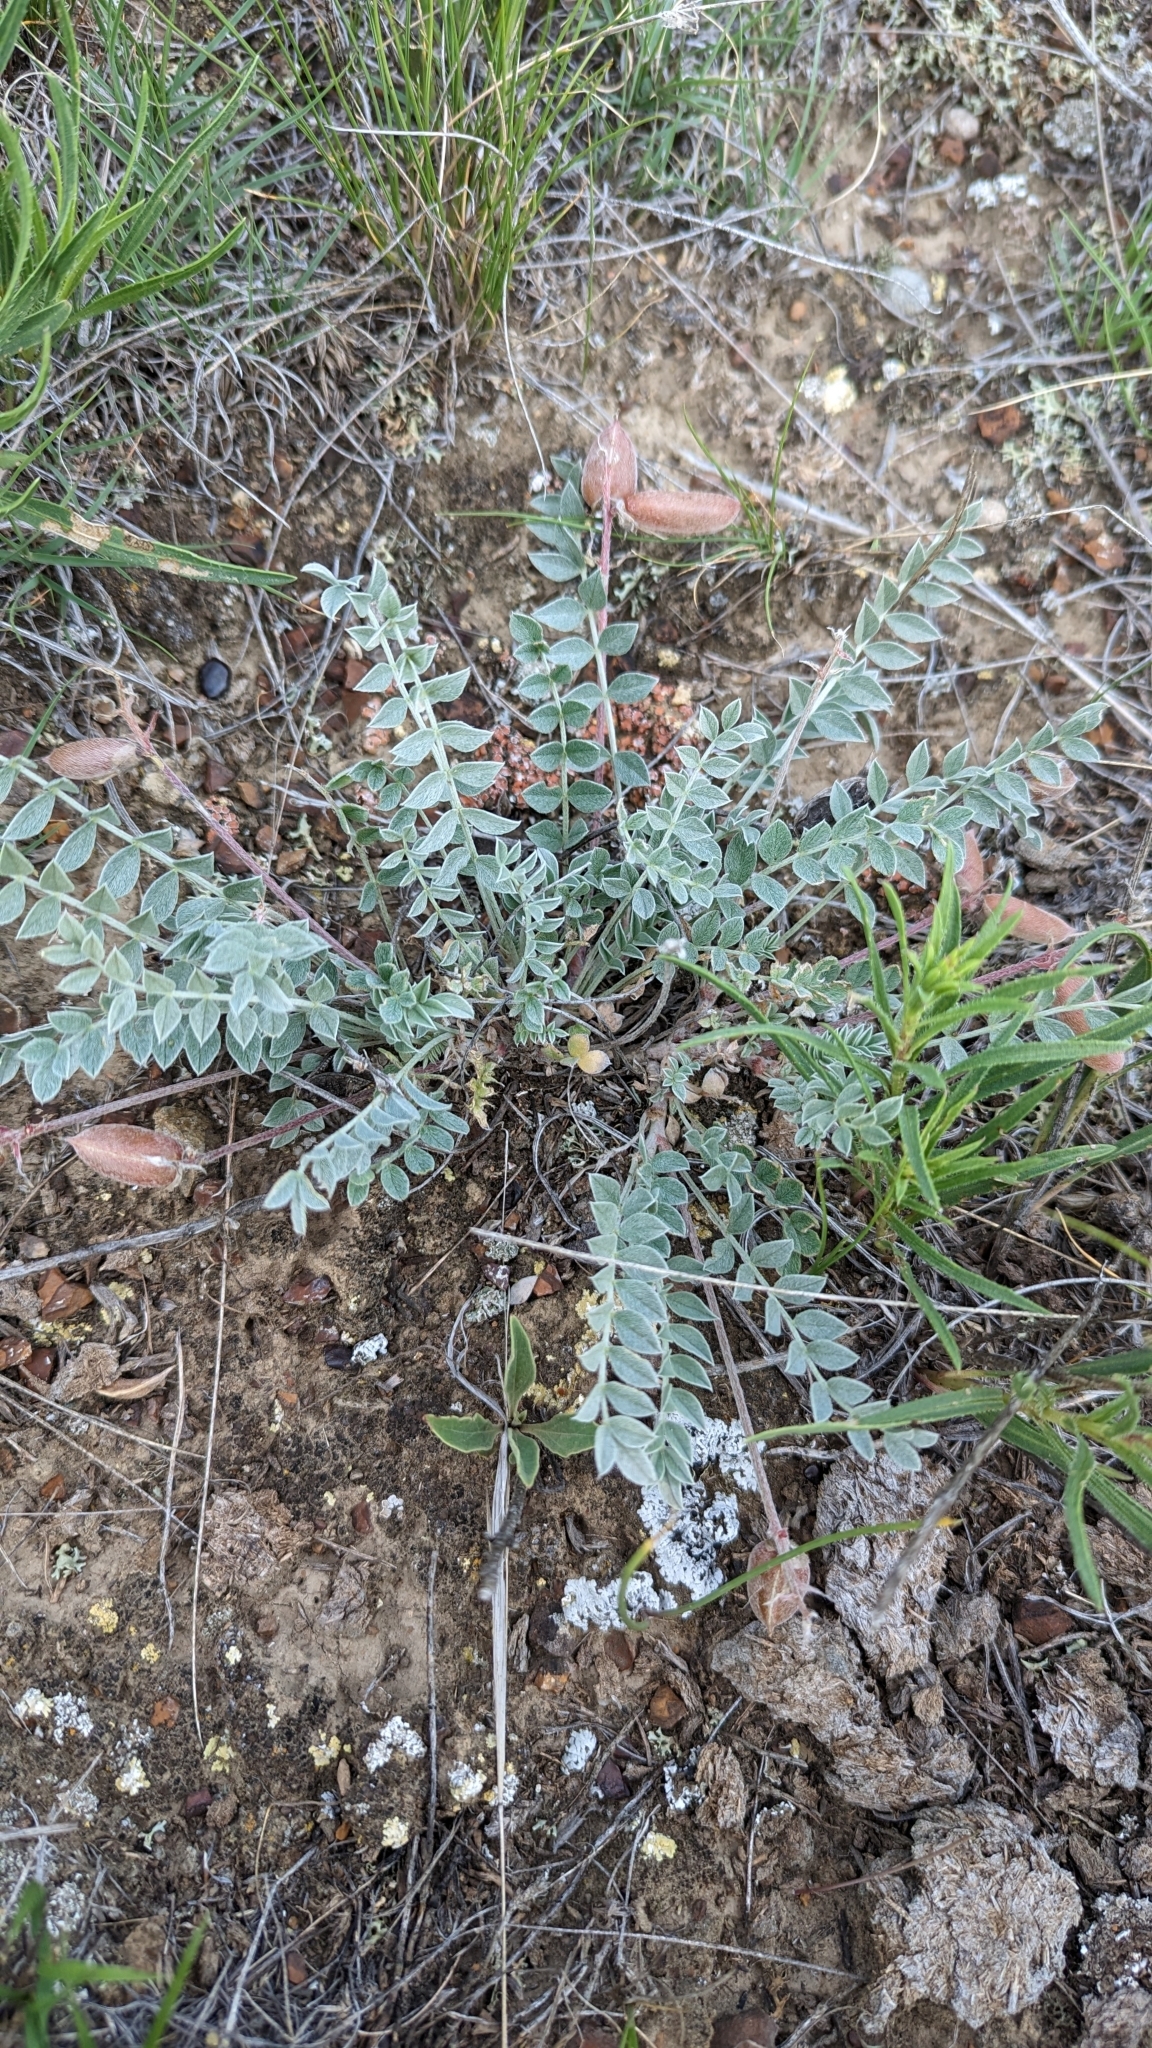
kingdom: Plantae
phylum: Tracheophyta
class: Magnoliopsida
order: Fabales
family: Fabaceae
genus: Astragalus
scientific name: Astragalus missouriensis
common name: Missouri milk-vetch
